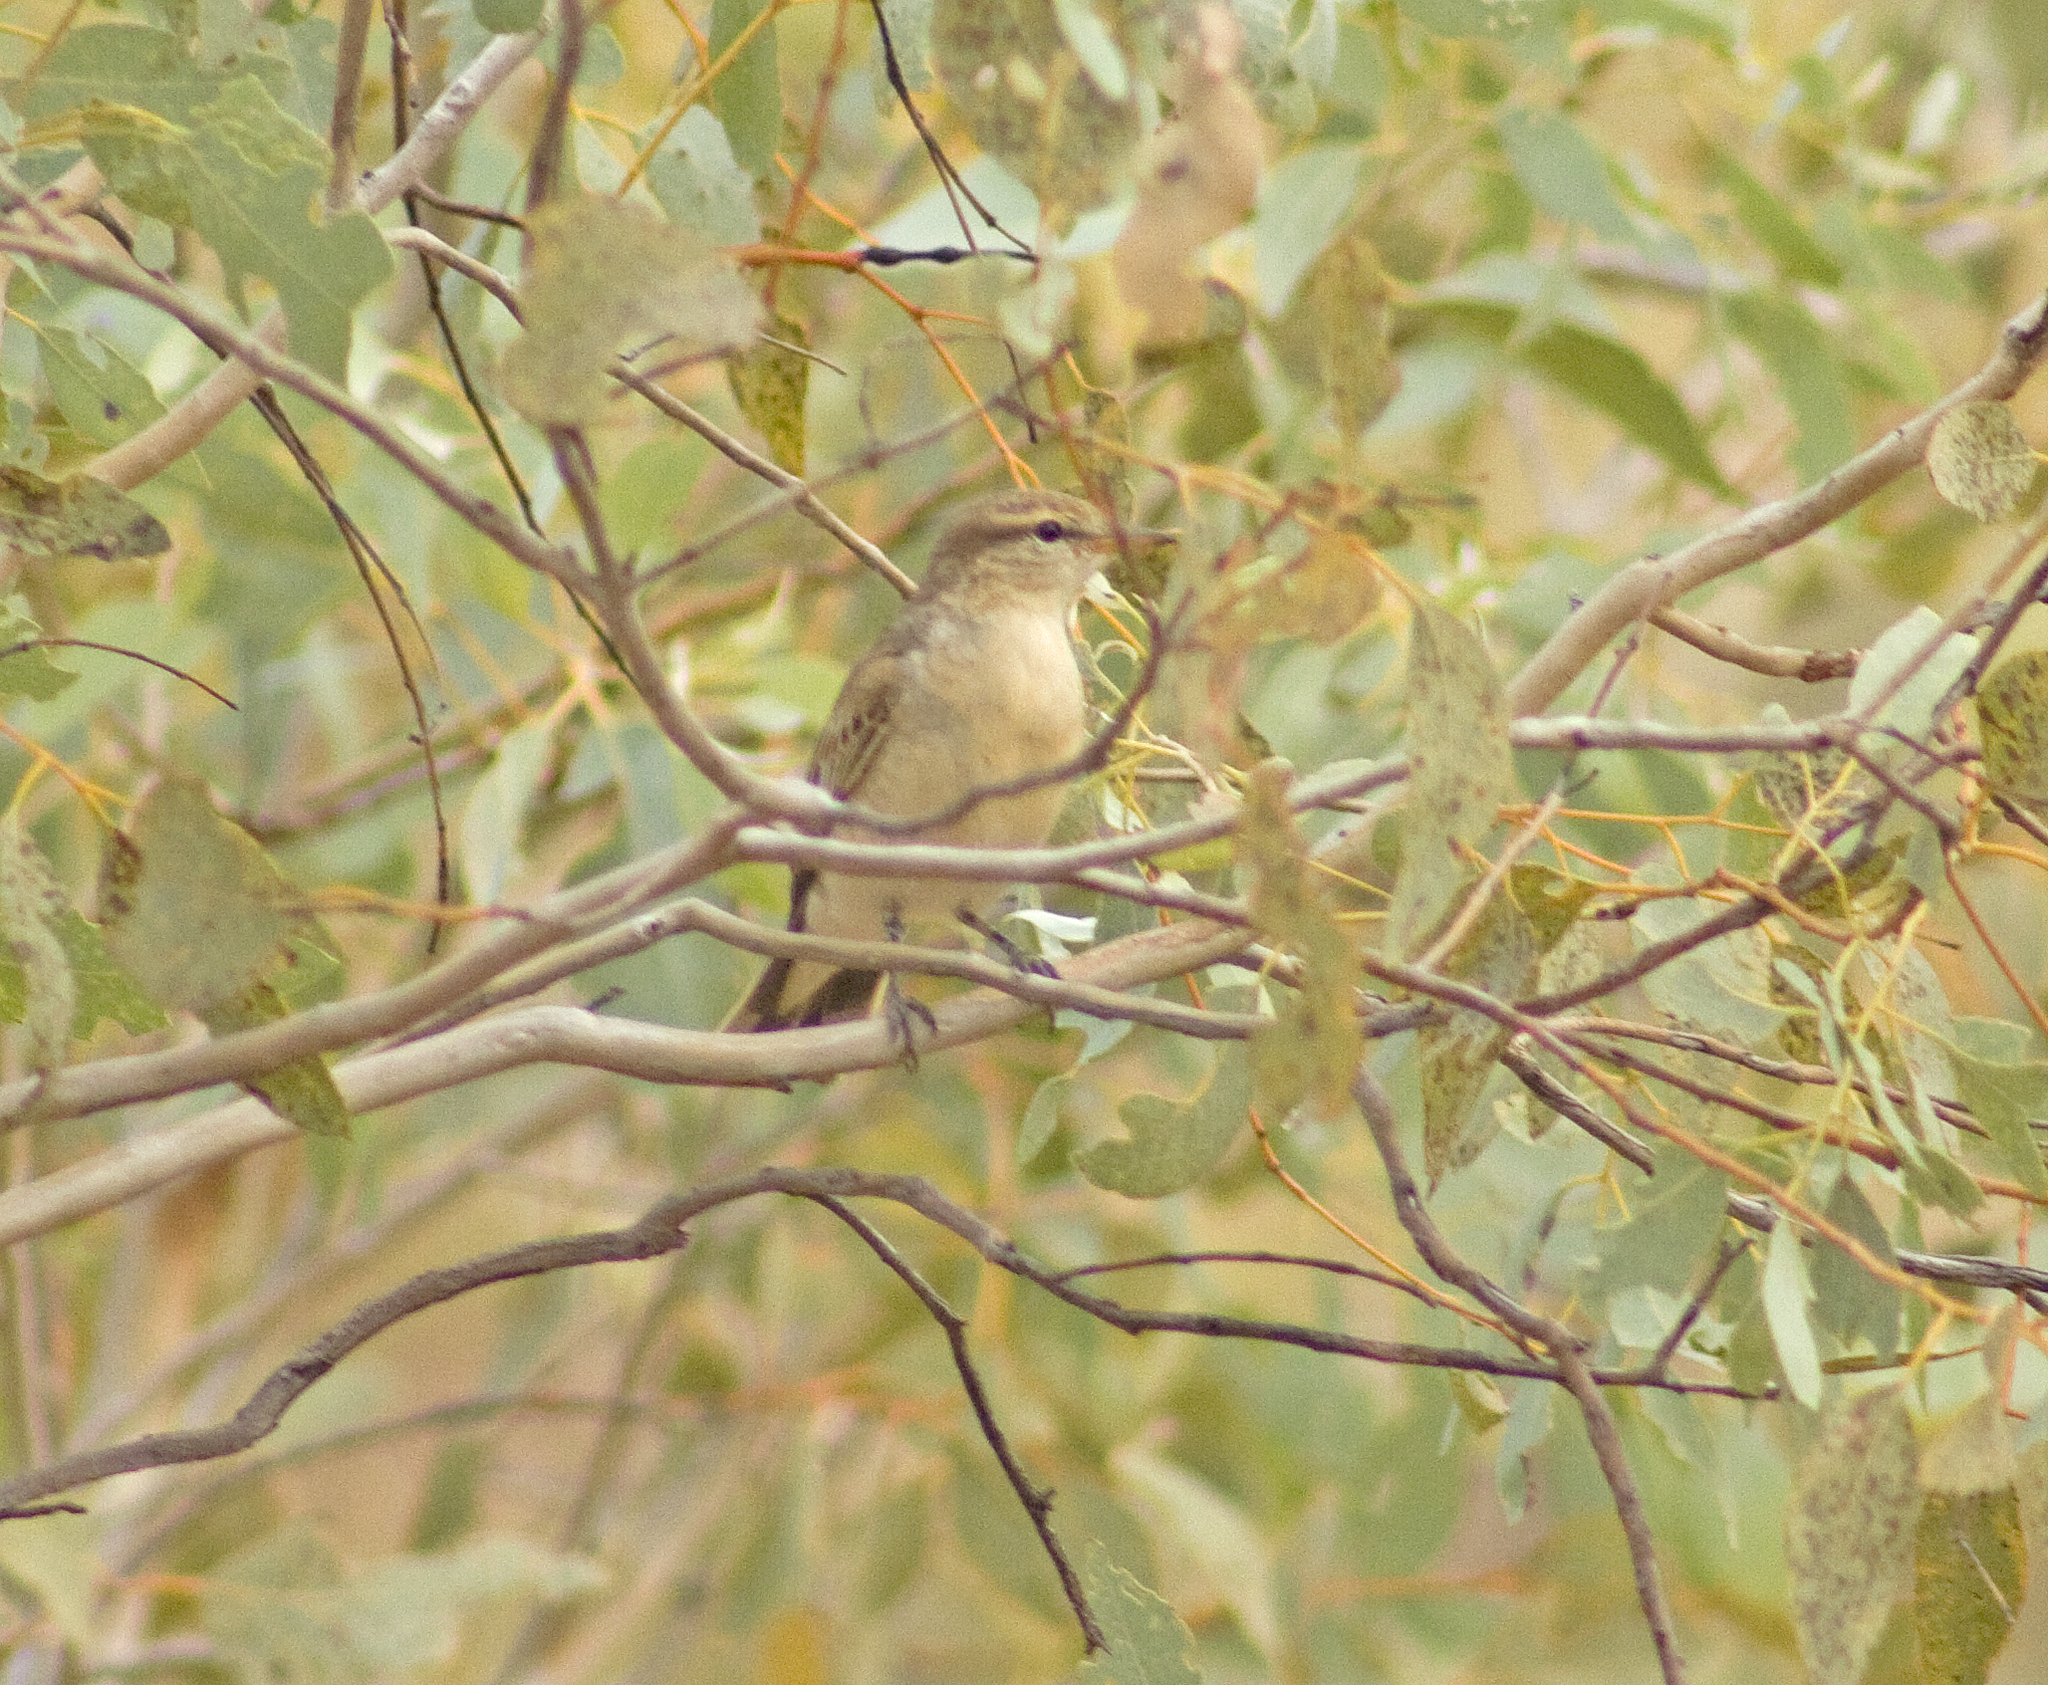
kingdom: Animalia
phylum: Chordata
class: Aves
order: Passeriformes
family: Campephagidae
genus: Lalage
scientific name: Lalage tricolor
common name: White-winged triller
